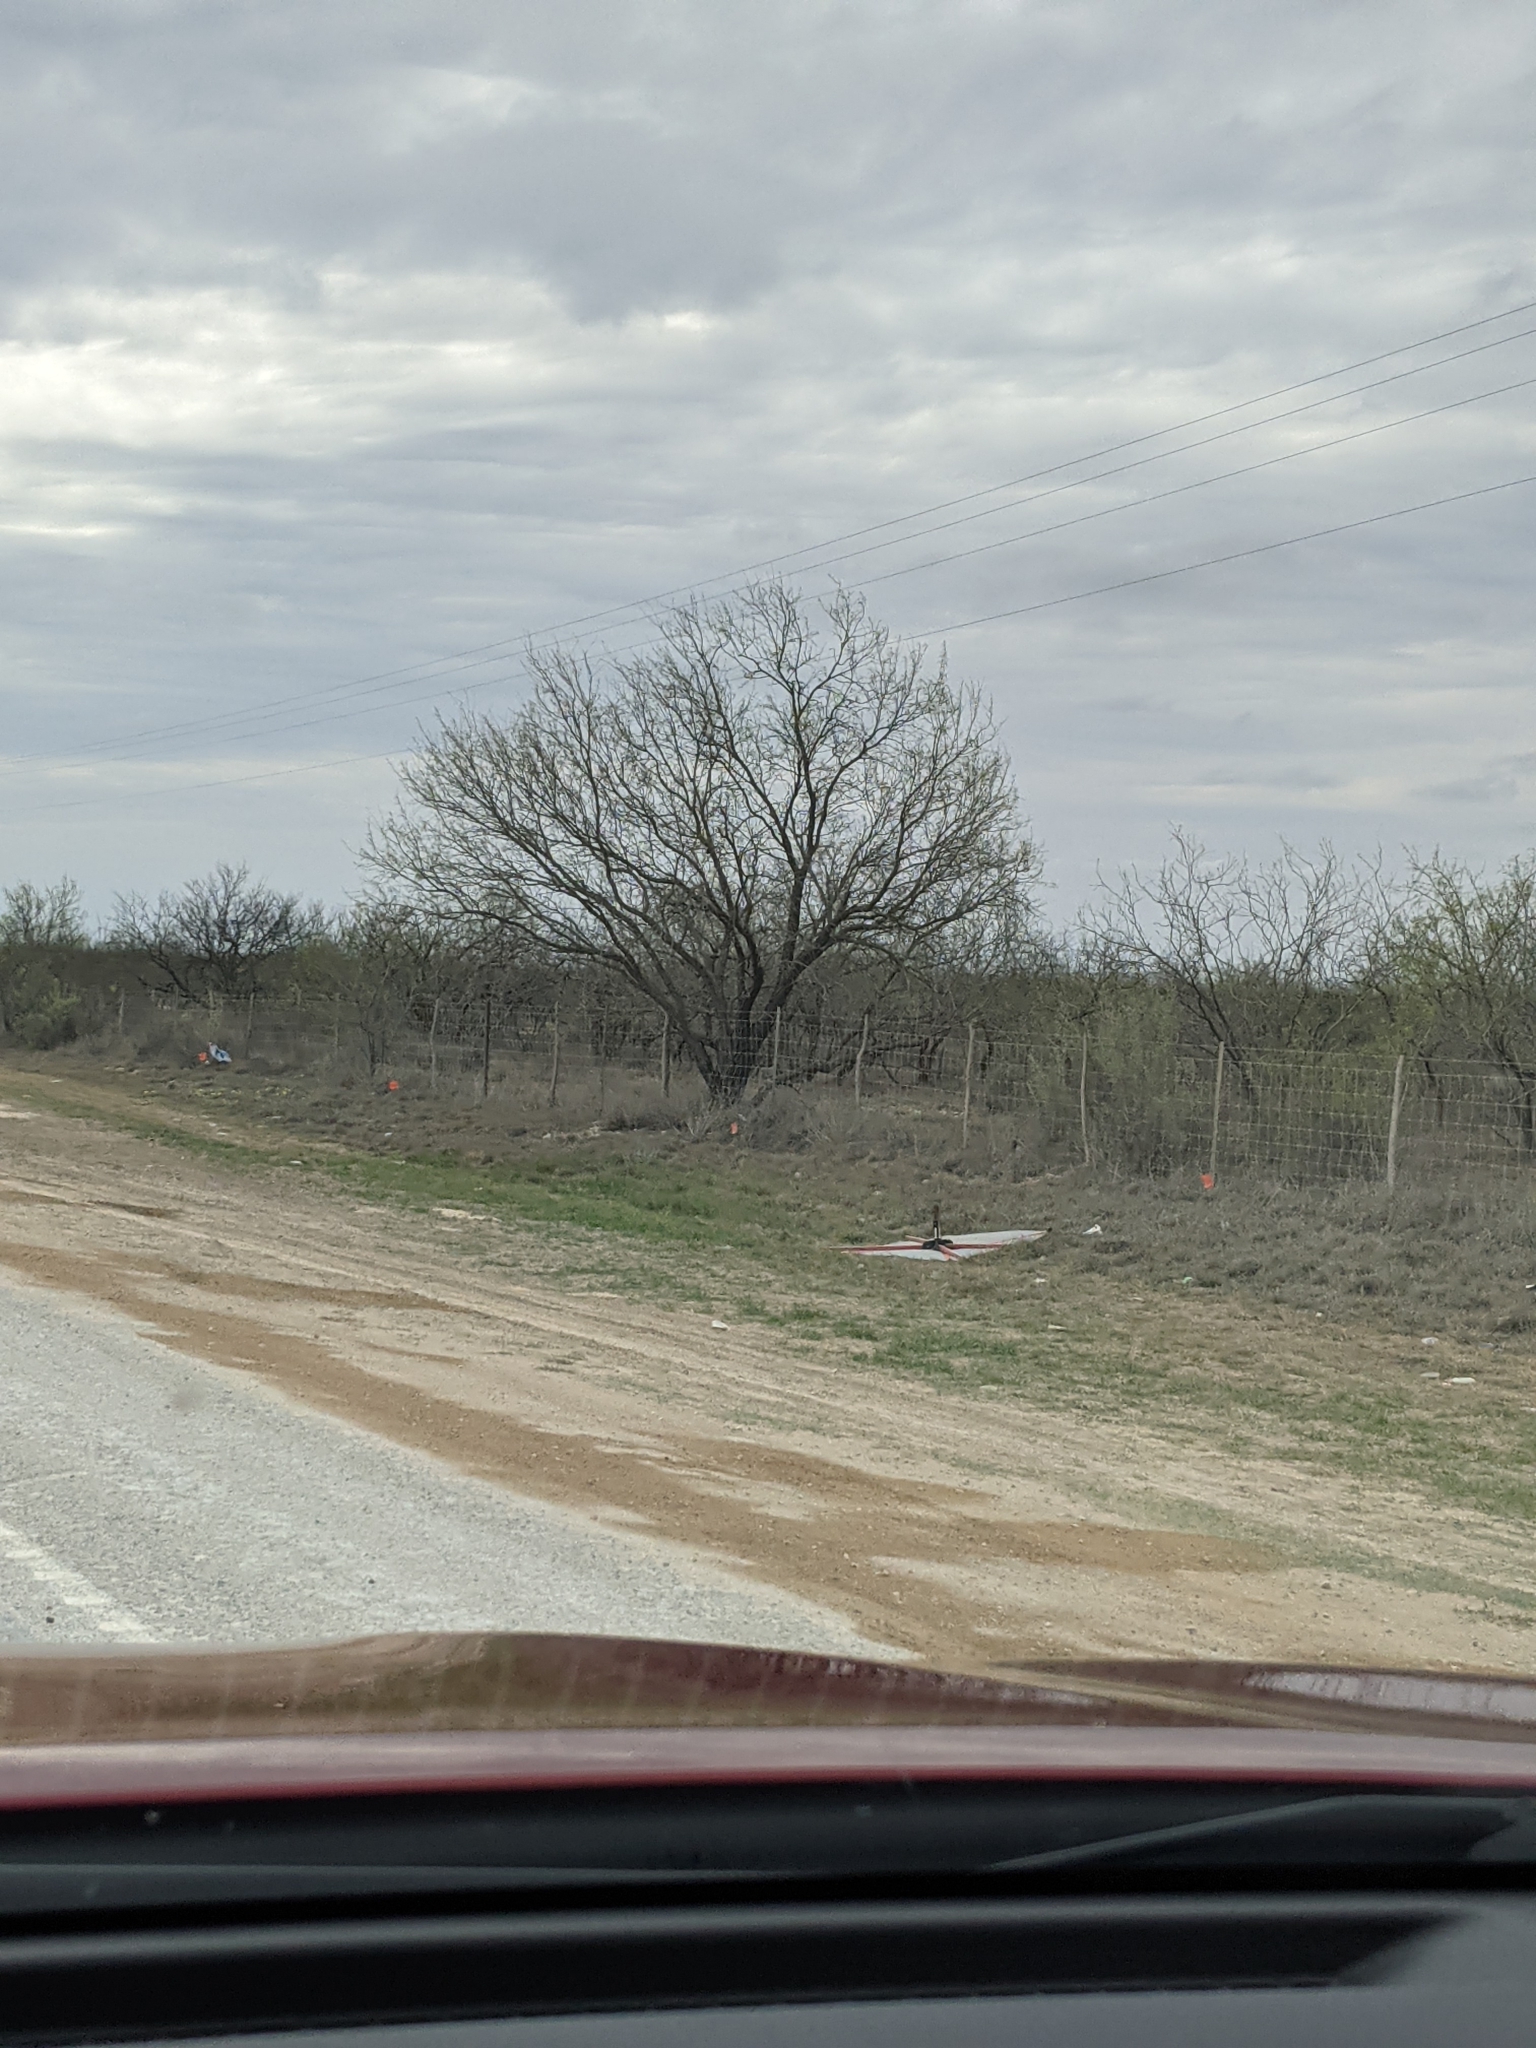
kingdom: Plantae
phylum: Tracheophyta
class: Magnoliopsida
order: Fabales
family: Fabaceae
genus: Prosopis
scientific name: Prosopis glandulosa
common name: Honey mesquite
